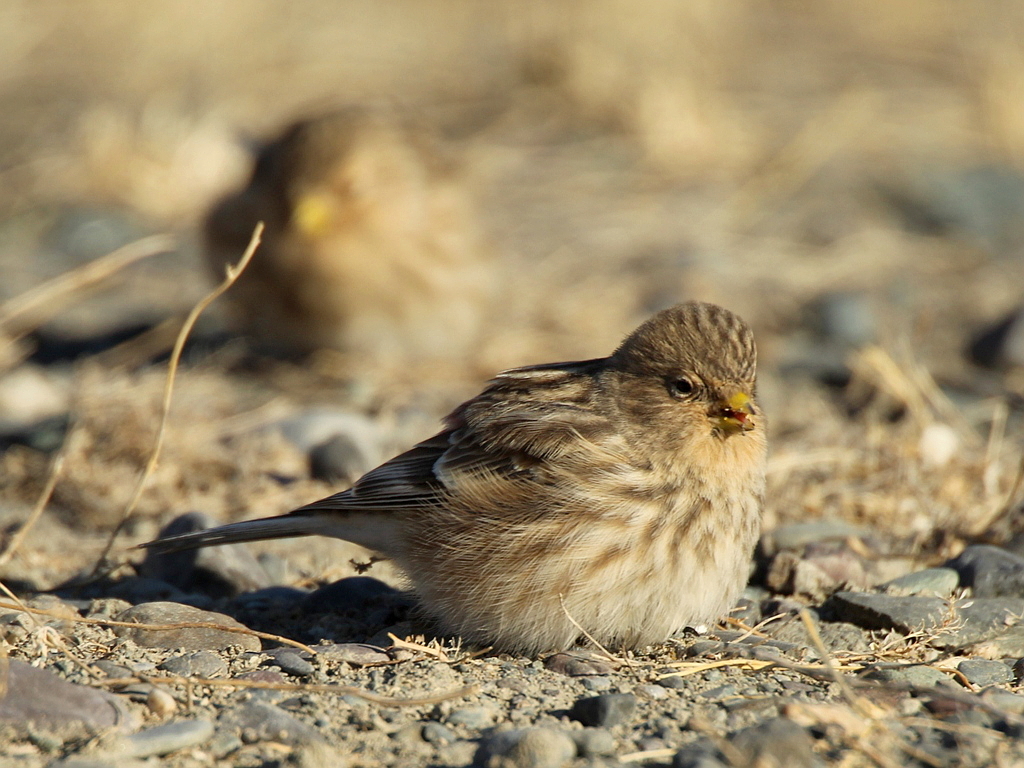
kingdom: Animalia
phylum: Chordata
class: Aves
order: Passeriformes
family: Fringillidae
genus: Linaria
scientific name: Linaria flavirostris
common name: Twite
